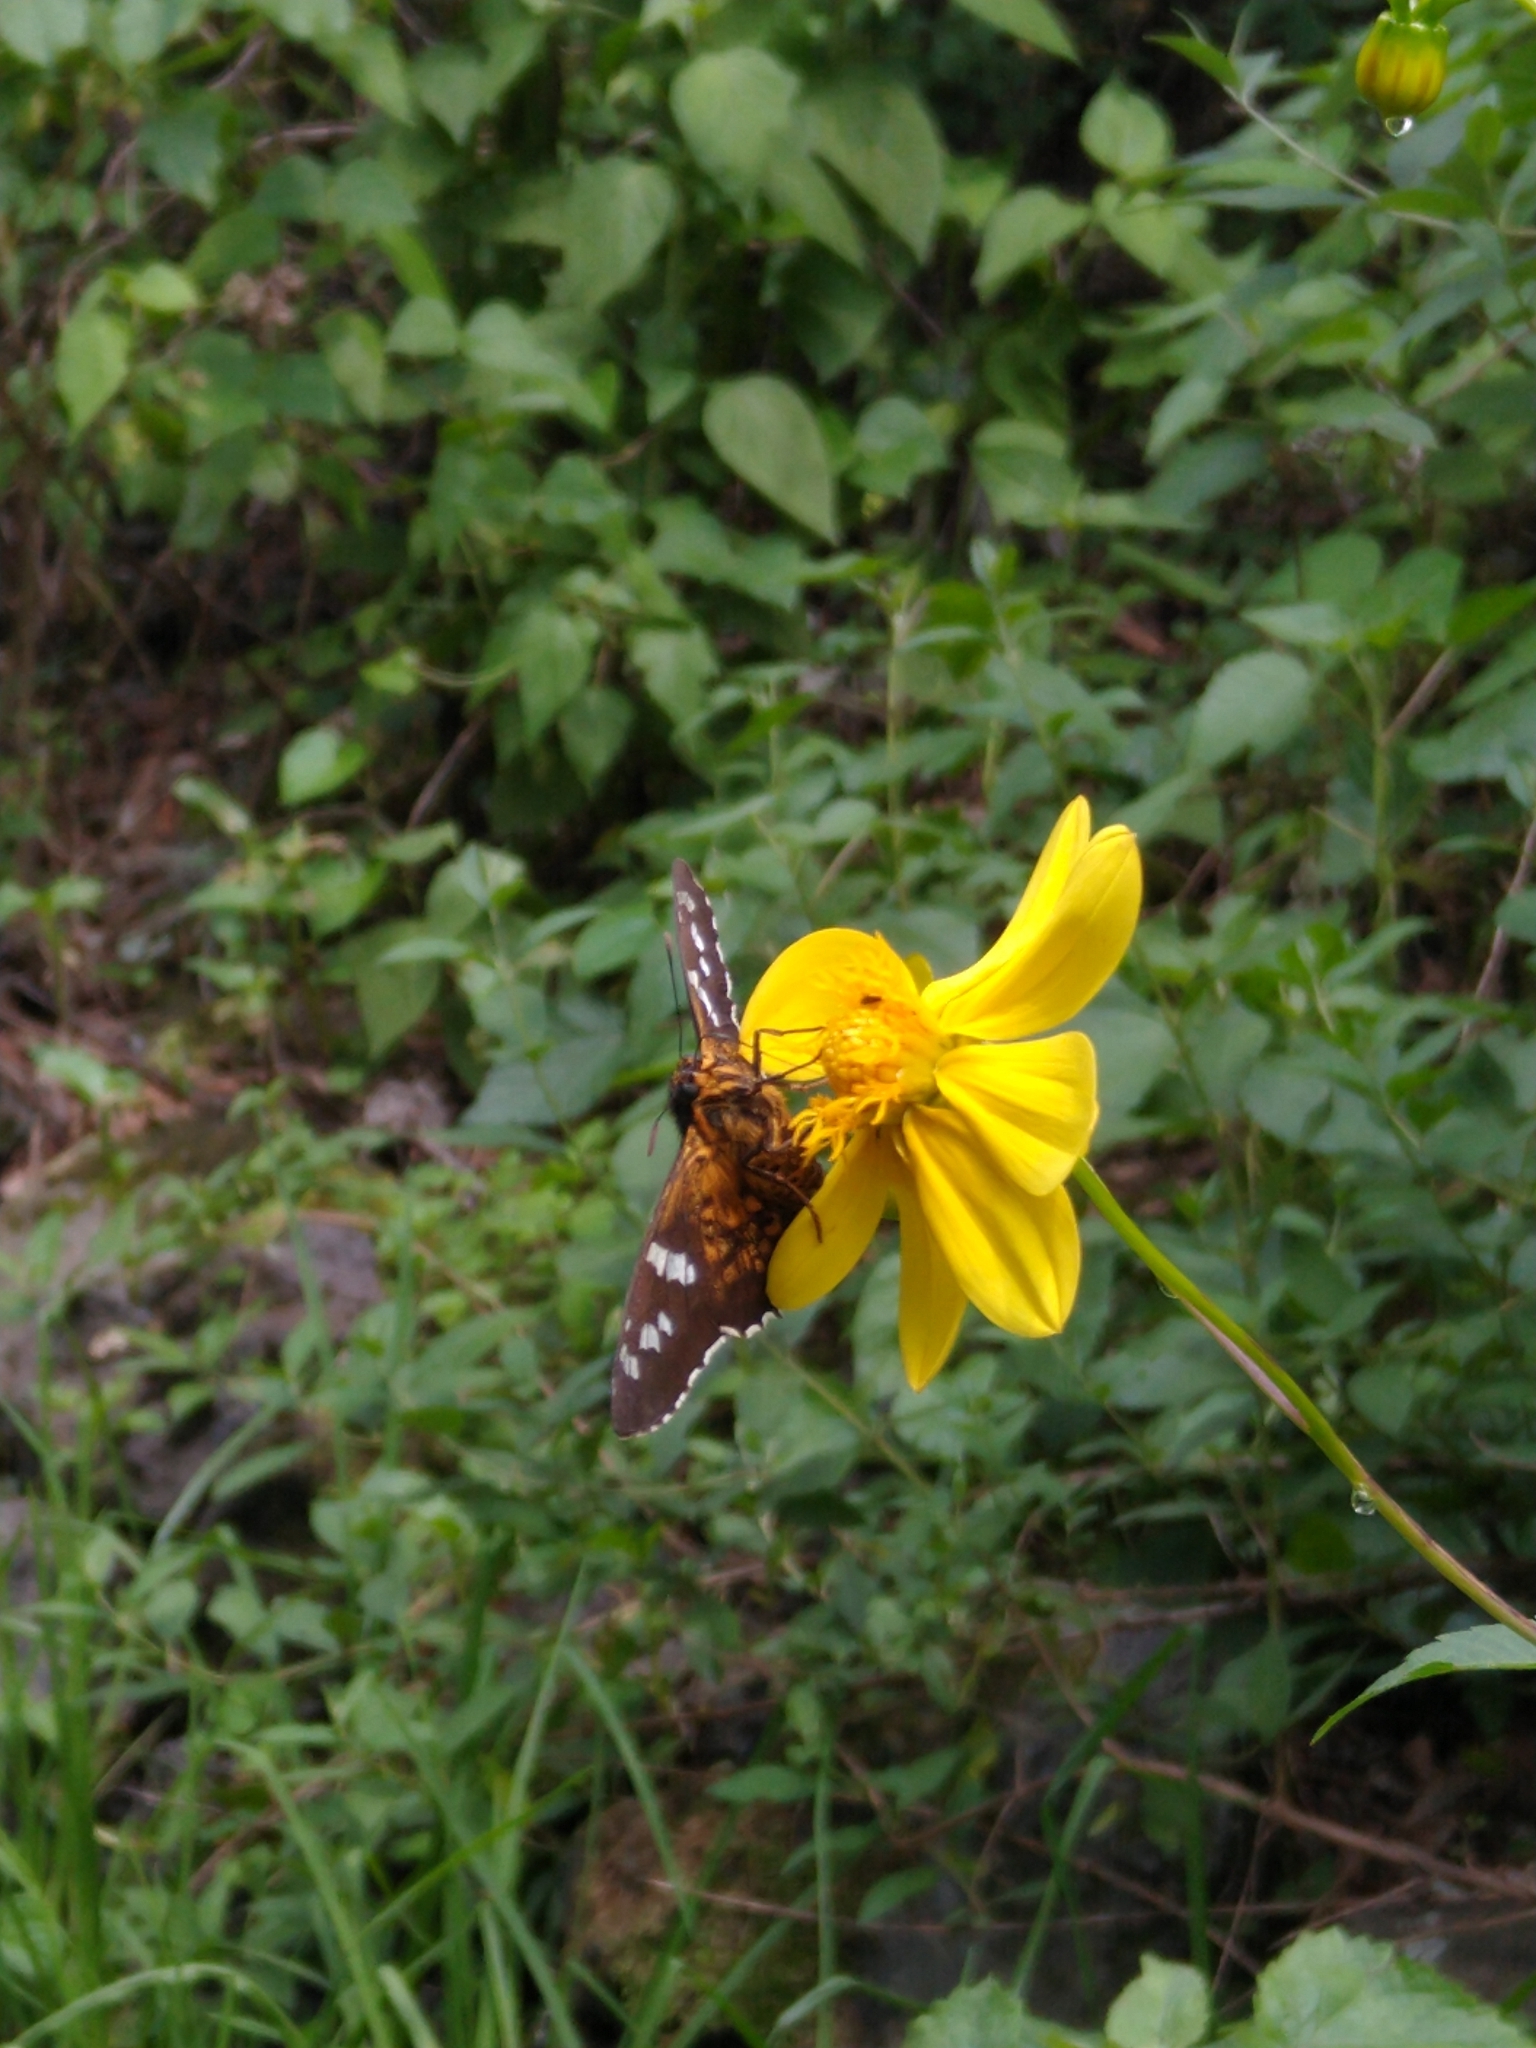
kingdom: Animalia
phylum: Arthropoda
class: Insecta
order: Lepidoptera
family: Hesperiidae
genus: Pyrrhopyge
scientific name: Pyrrhopyge araxes
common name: Dull firetip
